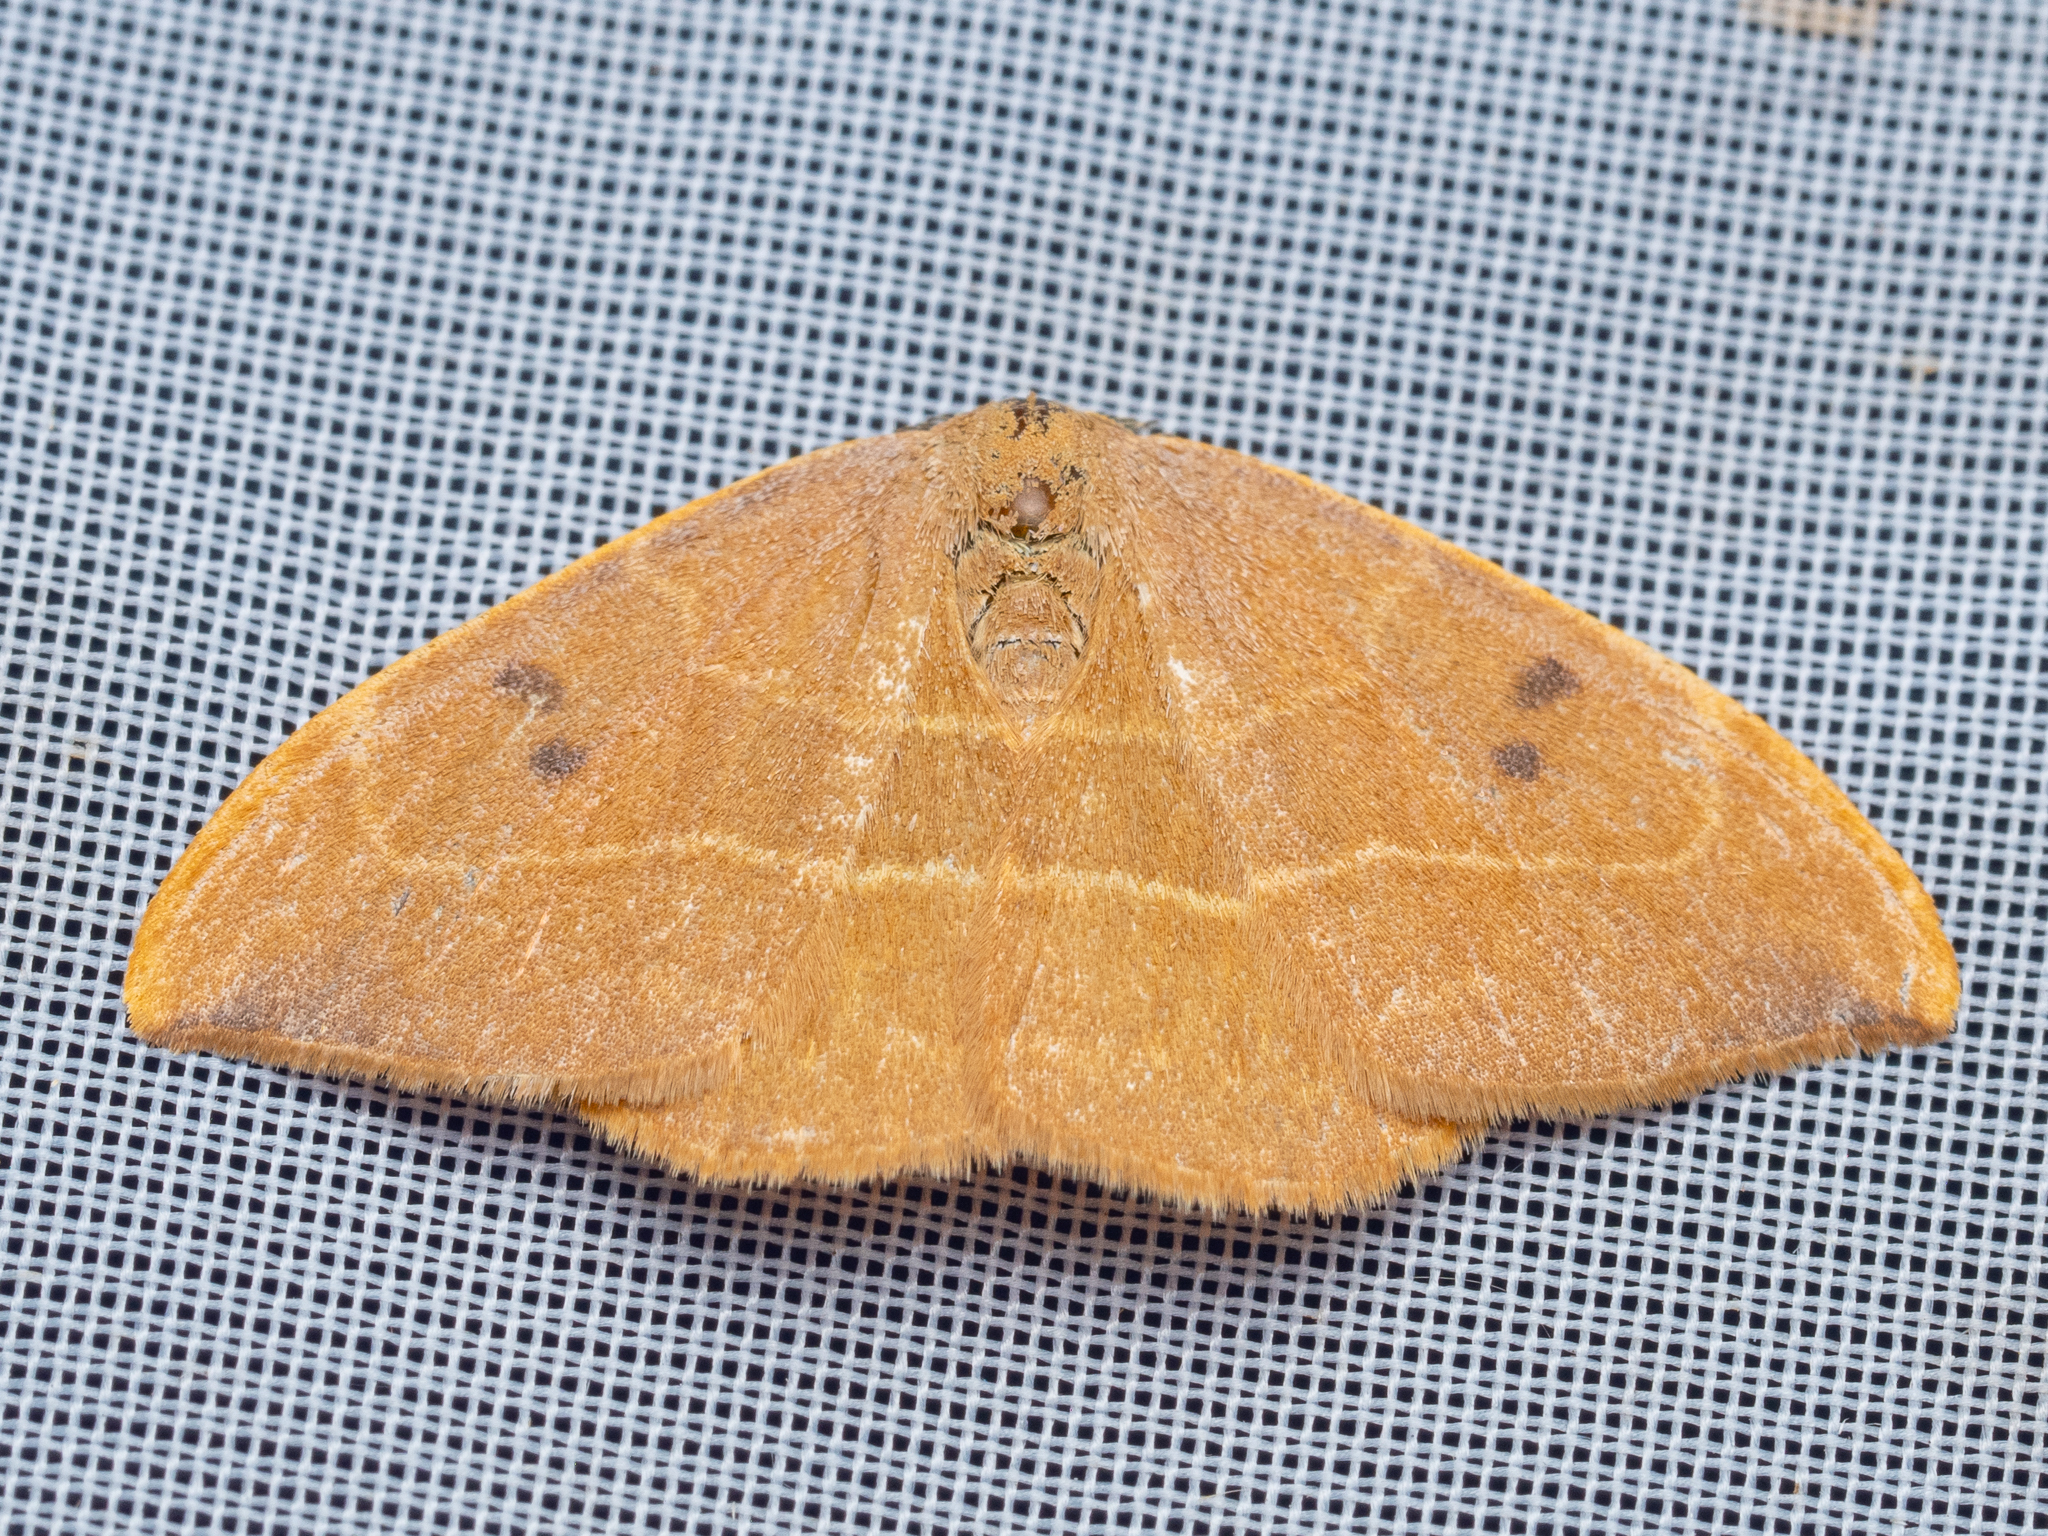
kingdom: Animalia
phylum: Arthropoda
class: Insecta
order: Lepidoptera
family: Drepanidae
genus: Watsonalla
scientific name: Watsonalla binaria
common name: Oak hook-tip
